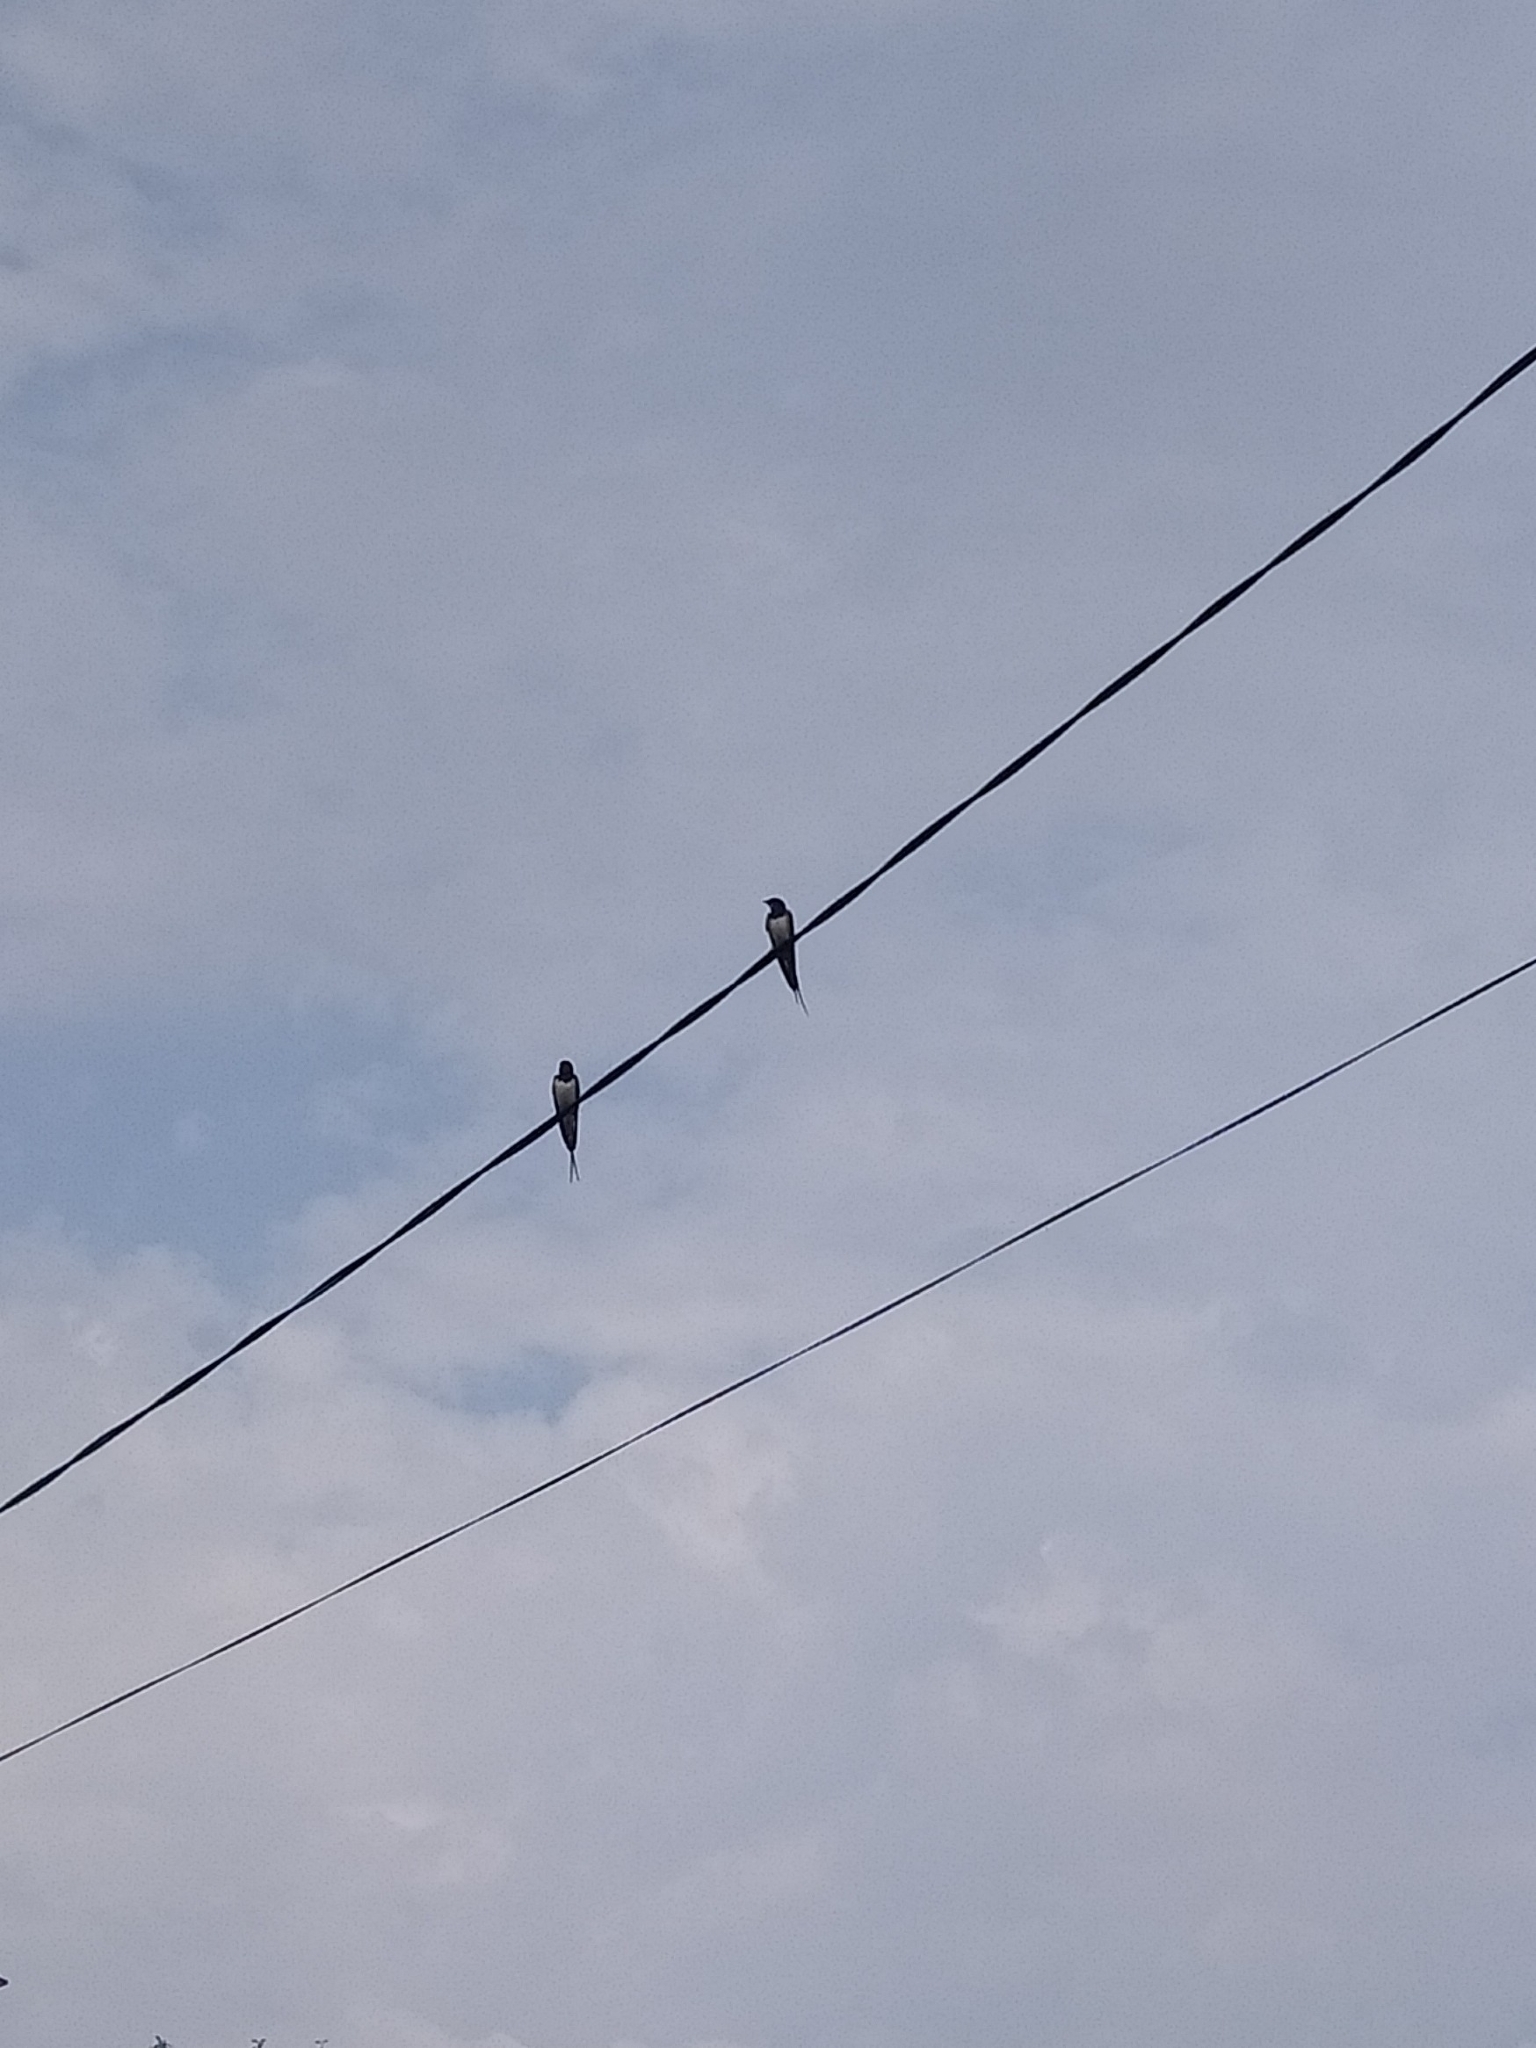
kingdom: Animalia
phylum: Chordata
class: Aves
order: Passeriformes
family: Hirundinidae
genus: Hirundo
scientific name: Hirundo rustica
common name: Barn swallow
